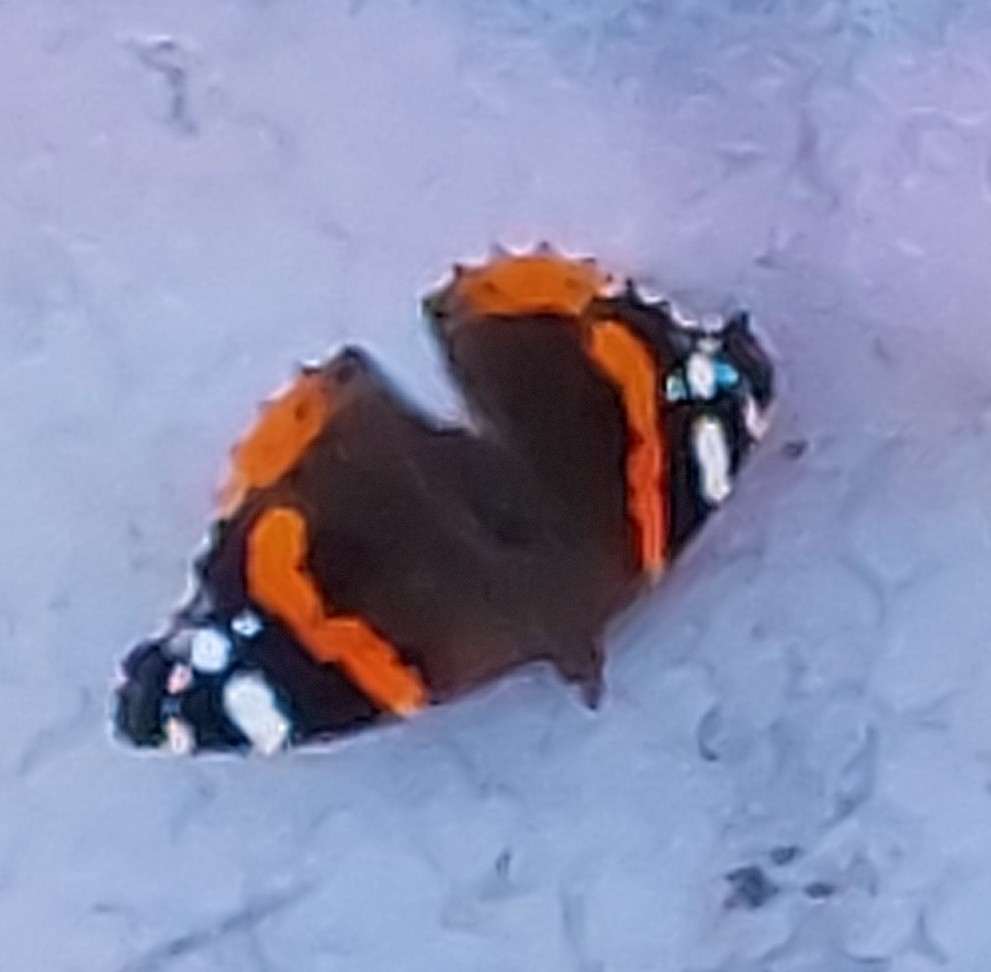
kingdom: Animalia
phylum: Arthropoda
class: Insecta
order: Lepidoptera
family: Nymphalidae
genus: Vanessa
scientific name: Vanessa atalanta
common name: Red admiral
